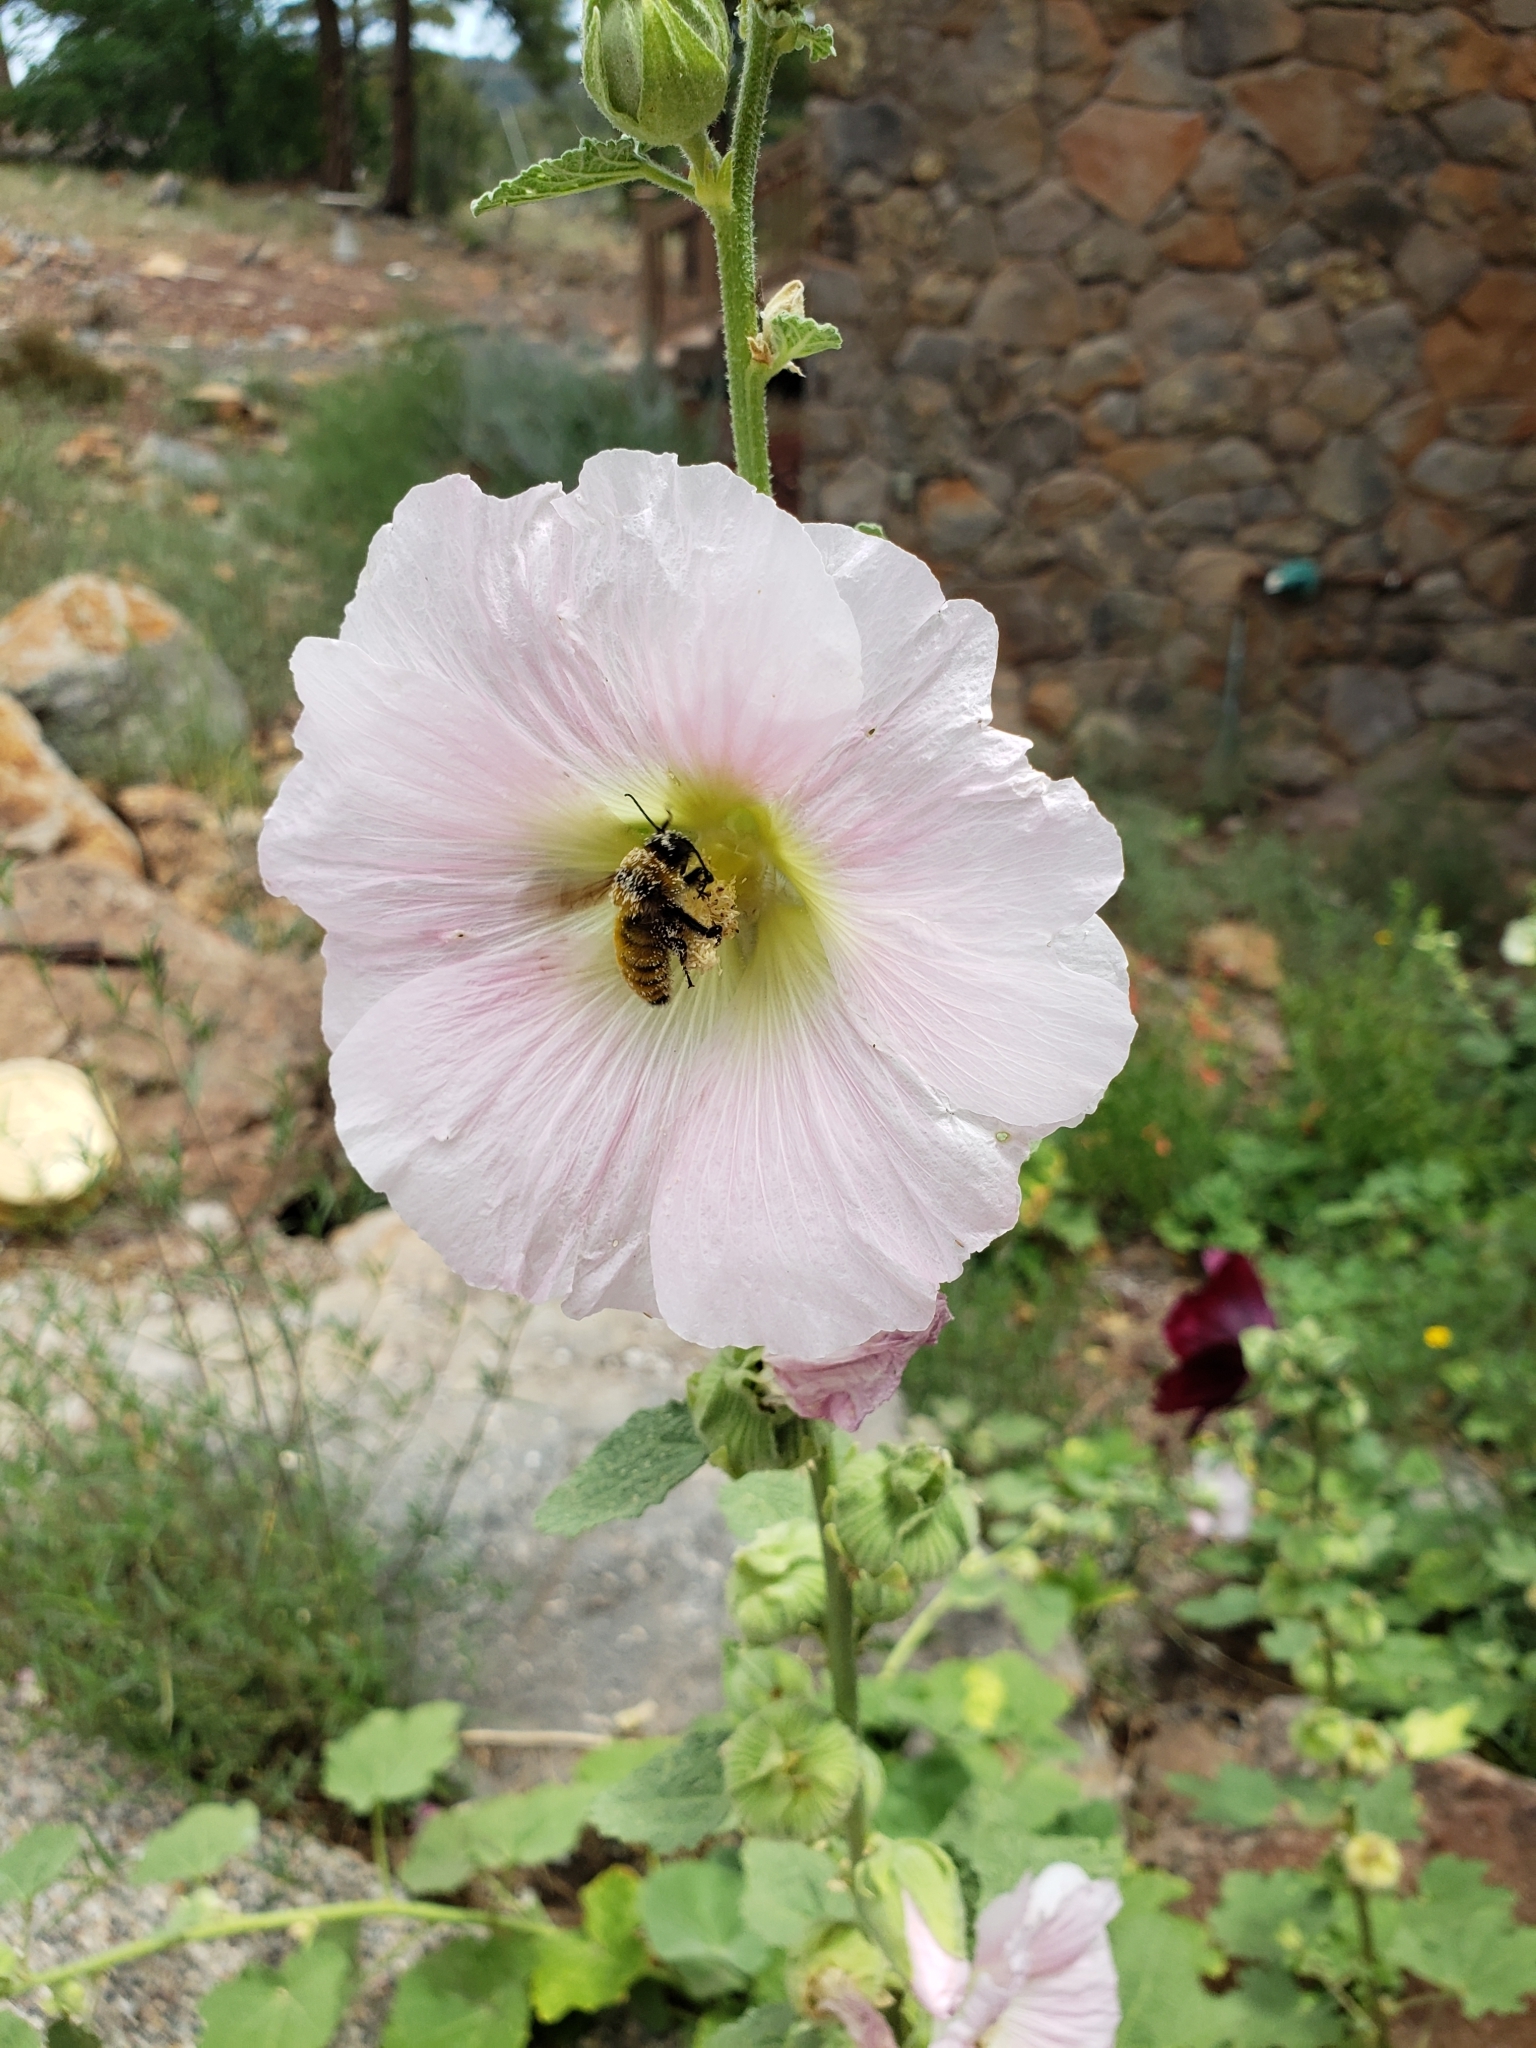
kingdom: Animalia
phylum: Arthropoda
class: Insecta
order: Hymenoptera
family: Apidae
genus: Bombus
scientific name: Bombus fervidus
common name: Yellow bumble bee
